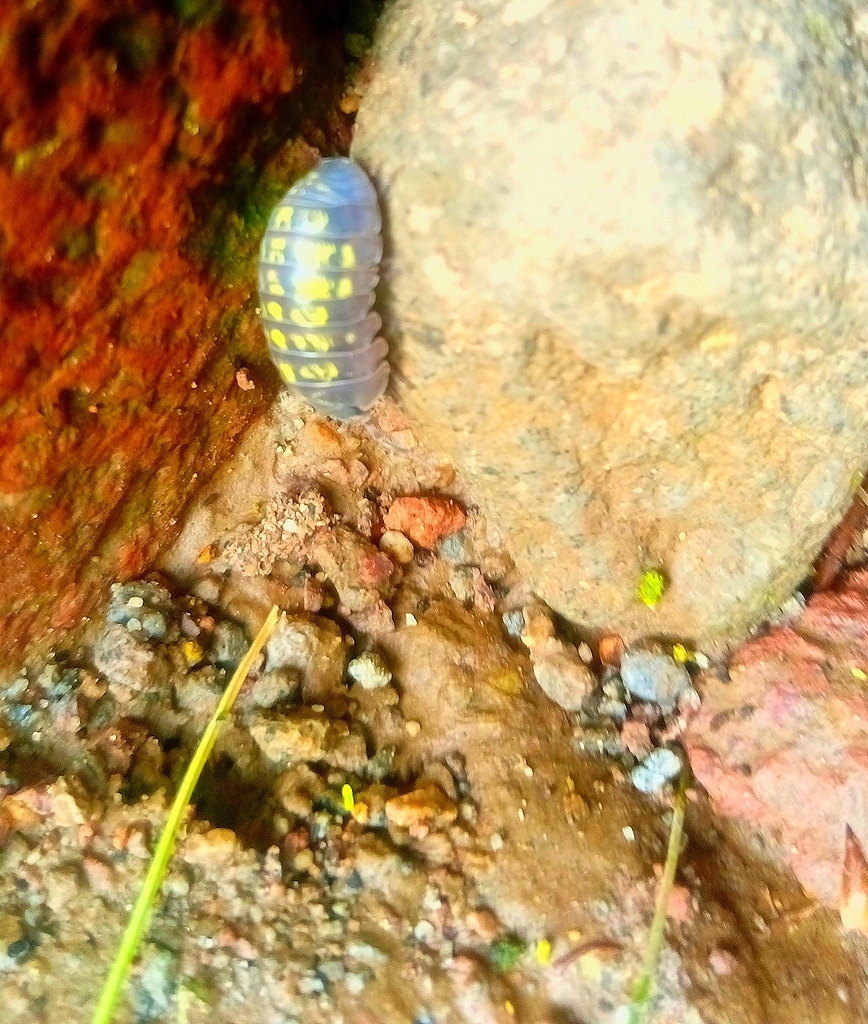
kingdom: Animalia
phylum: Arthropoda
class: Malacostraca
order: Isopoda
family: Armadillidiidae
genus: Armadillidium
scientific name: Armadillidium vulgare
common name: Common pill woodlouse
